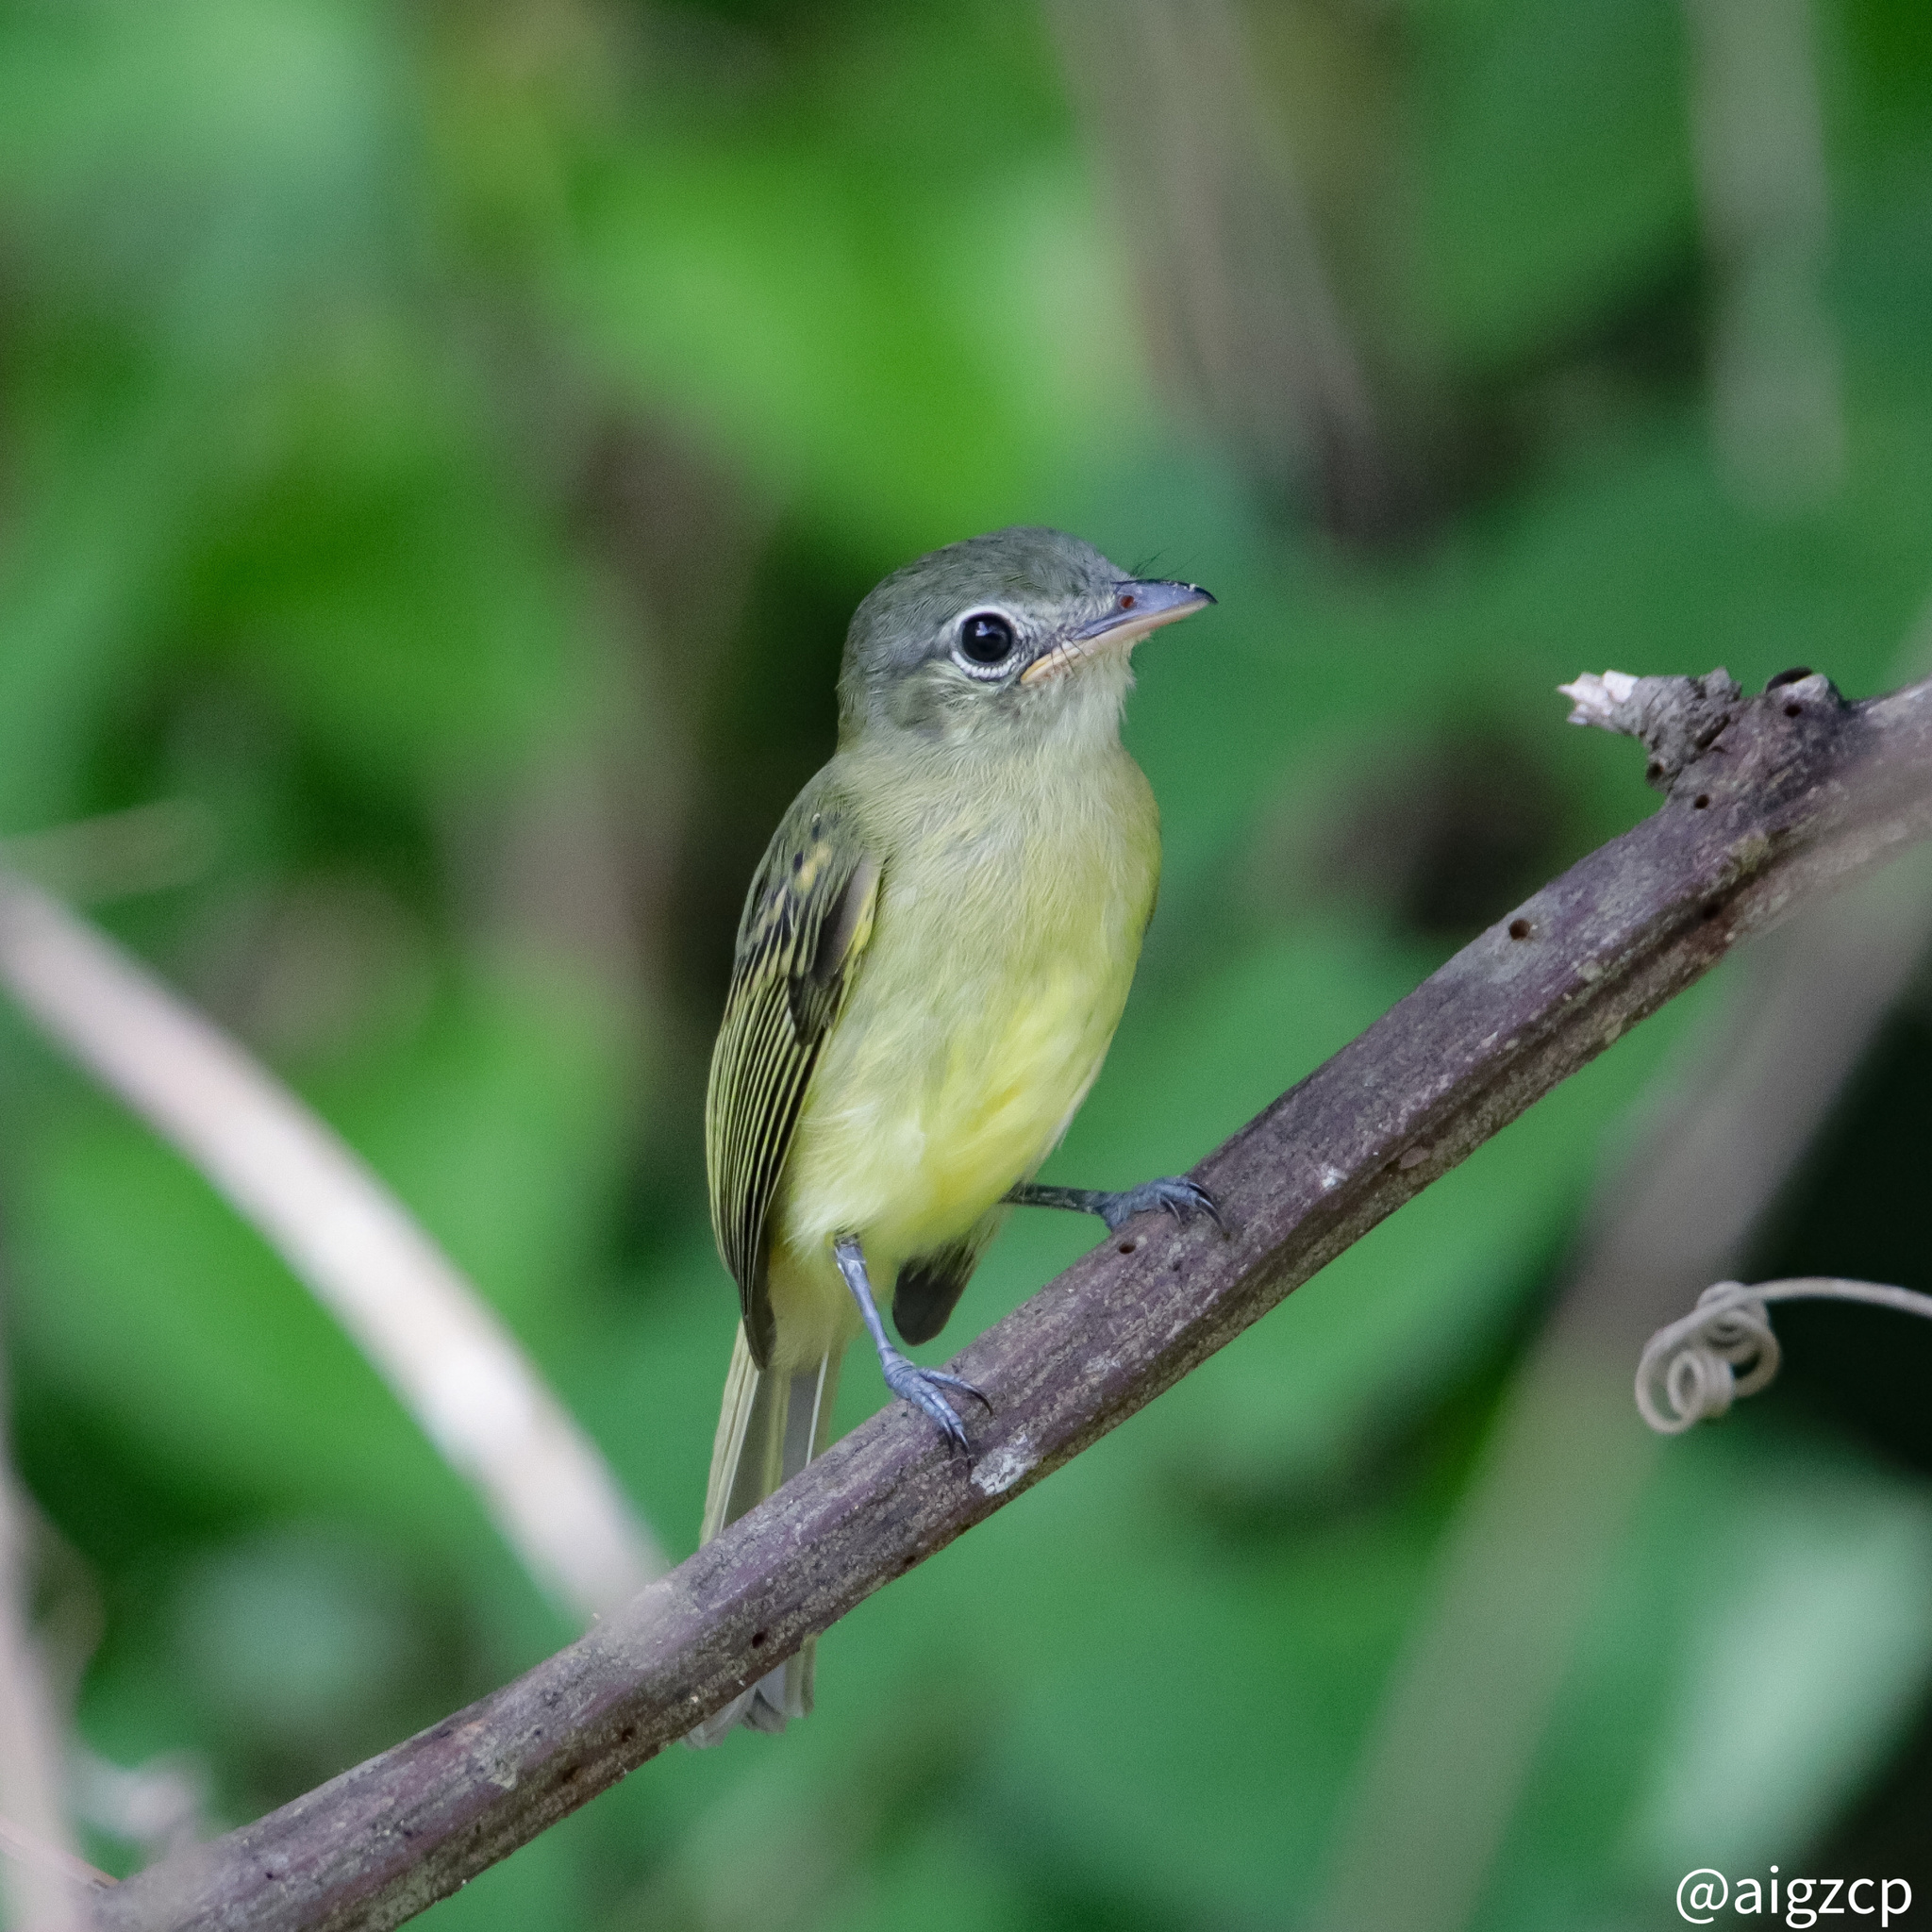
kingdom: Animalia
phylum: Chordata
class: Aves
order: Passeriformes
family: Tyrannidae
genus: Tolmomyias
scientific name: Tolmomyias assimilis
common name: Yellow-margined flycatcher
